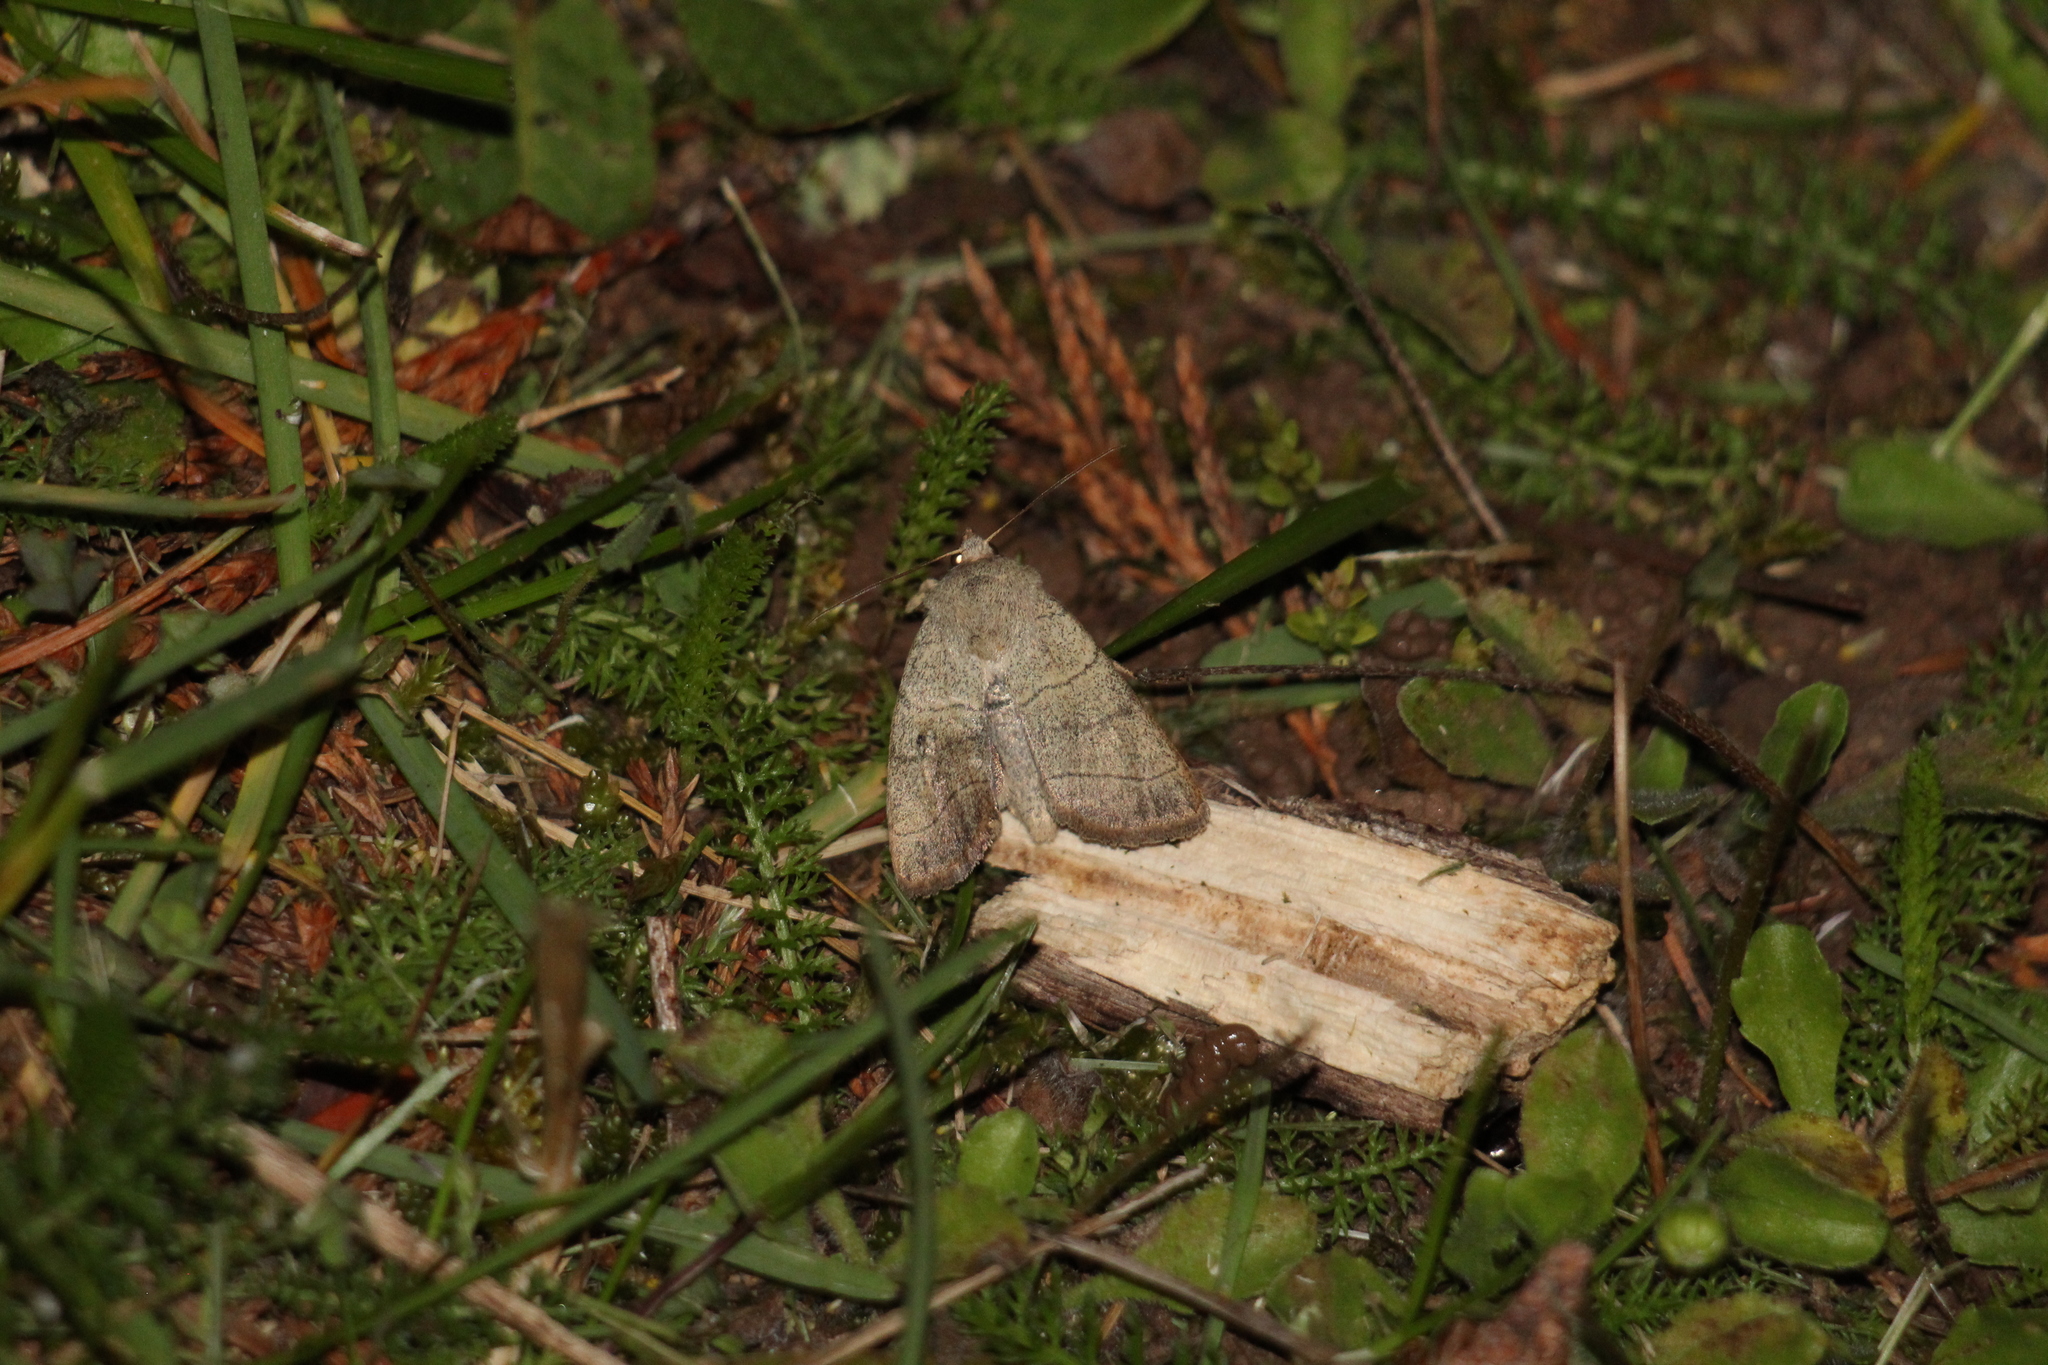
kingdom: Animalia
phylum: Arthropoda
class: Insecta
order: Lepidoptera
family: Noctuidae
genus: Charanyca
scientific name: Charanyca trigrammica
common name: Treble lines
